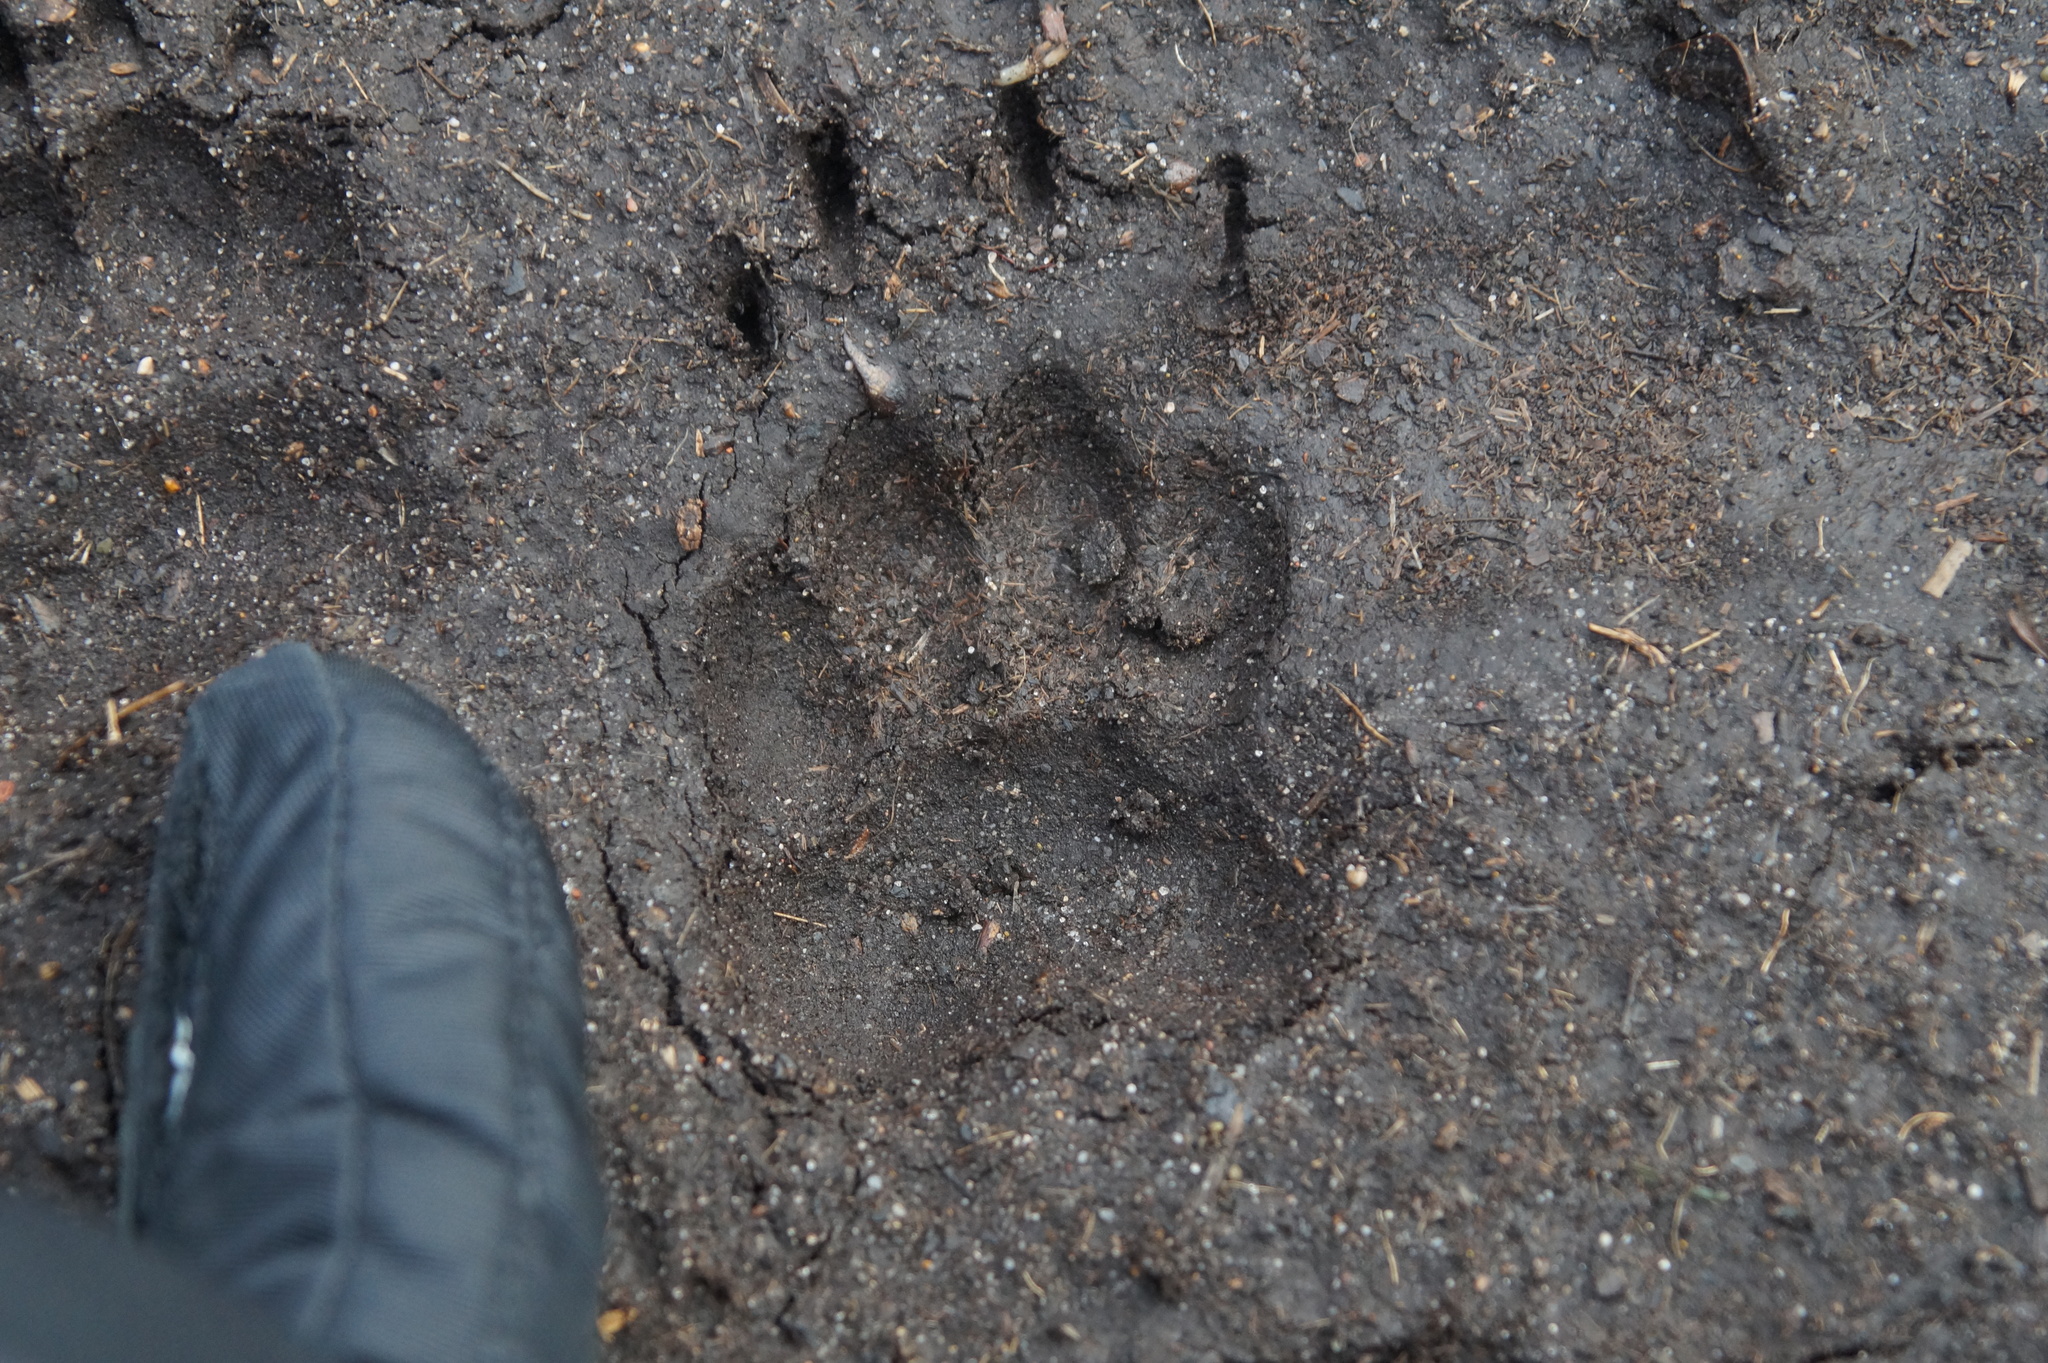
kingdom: Animalia
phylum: Chordata
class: Mammalia
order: Carnivora
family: Mustelidae
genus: Meles
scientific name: Meles meles
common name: Eurasian badger
